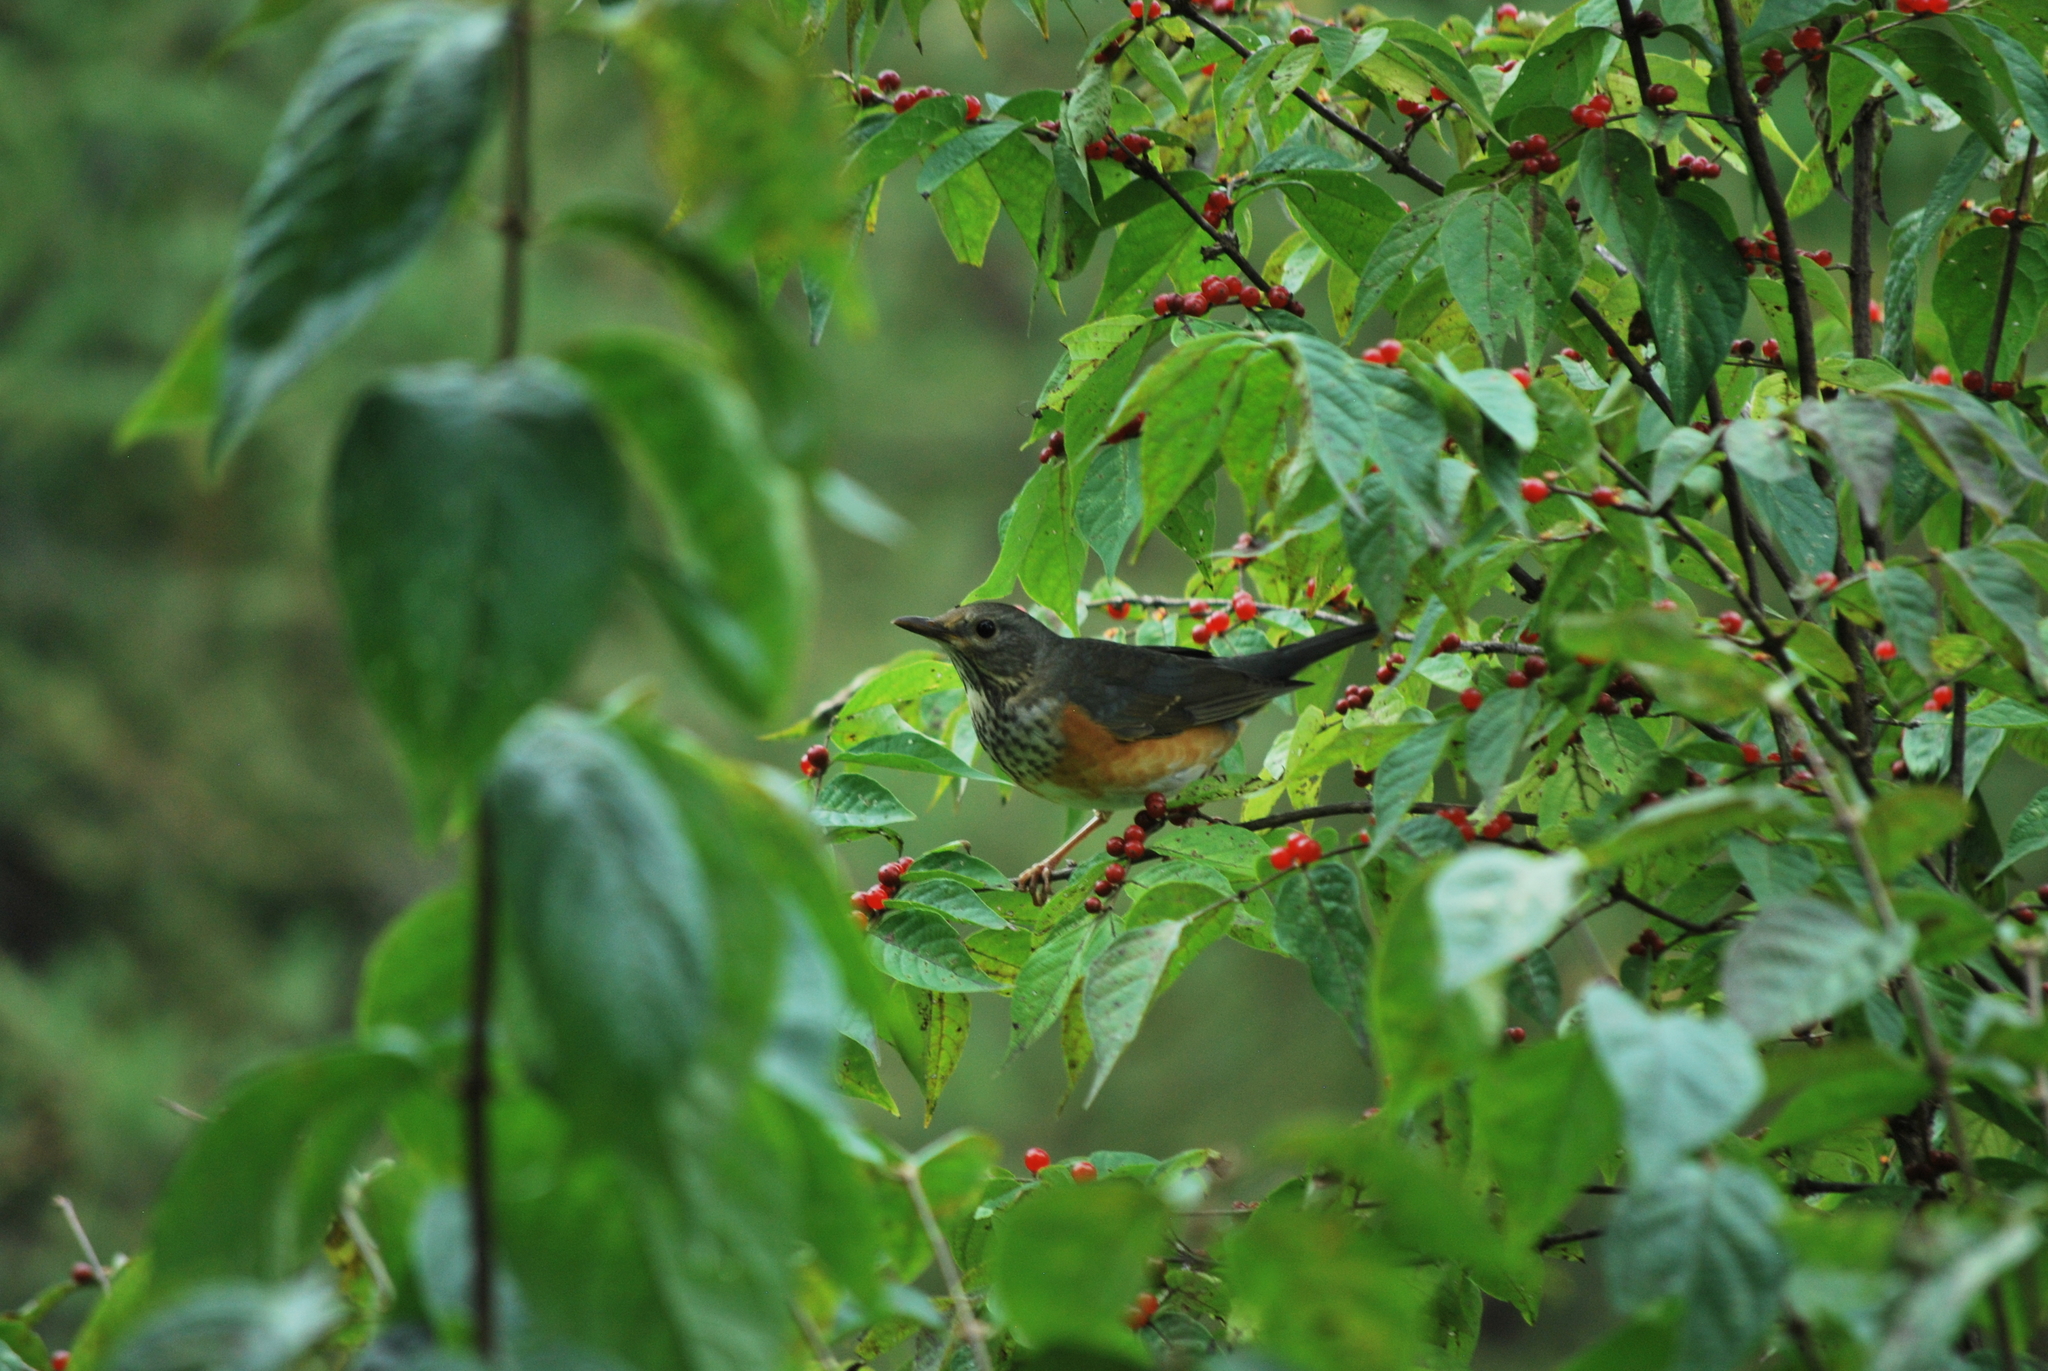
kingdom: Animalia
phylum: Chordata
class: Aves
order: Passeriformes
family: Turdidae
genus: Turdus
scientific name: Turdus hortulorum
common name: Grey-backed thrush
